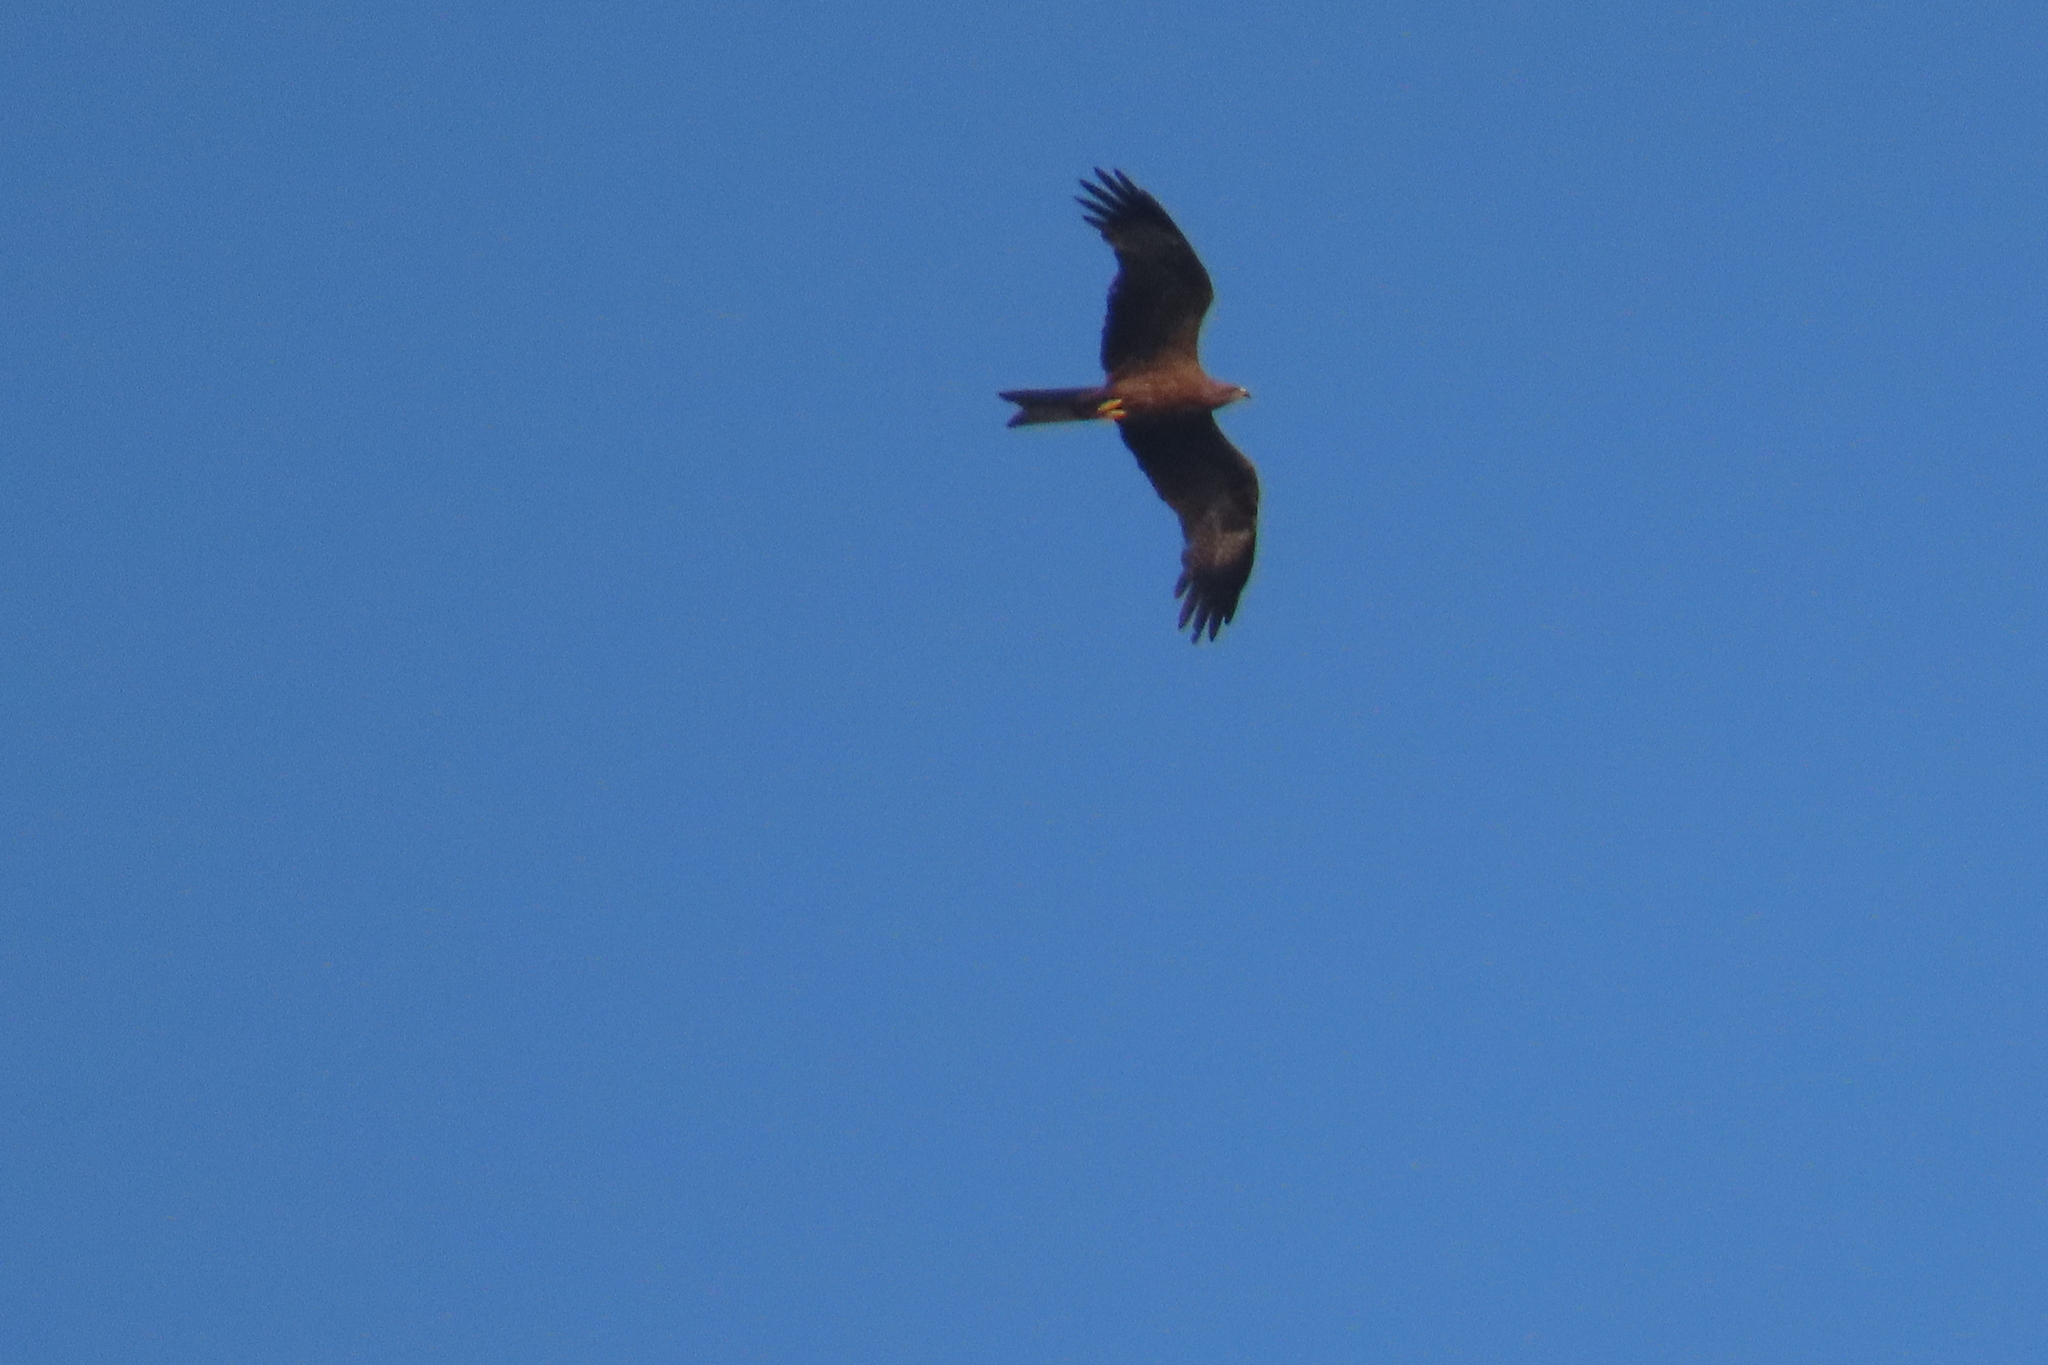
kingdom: Animalia
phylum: Chordata
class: Aves
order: Accipitriformes
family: Accipitridae
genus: Milvus
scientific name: Milvus migrans
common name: Black kite
